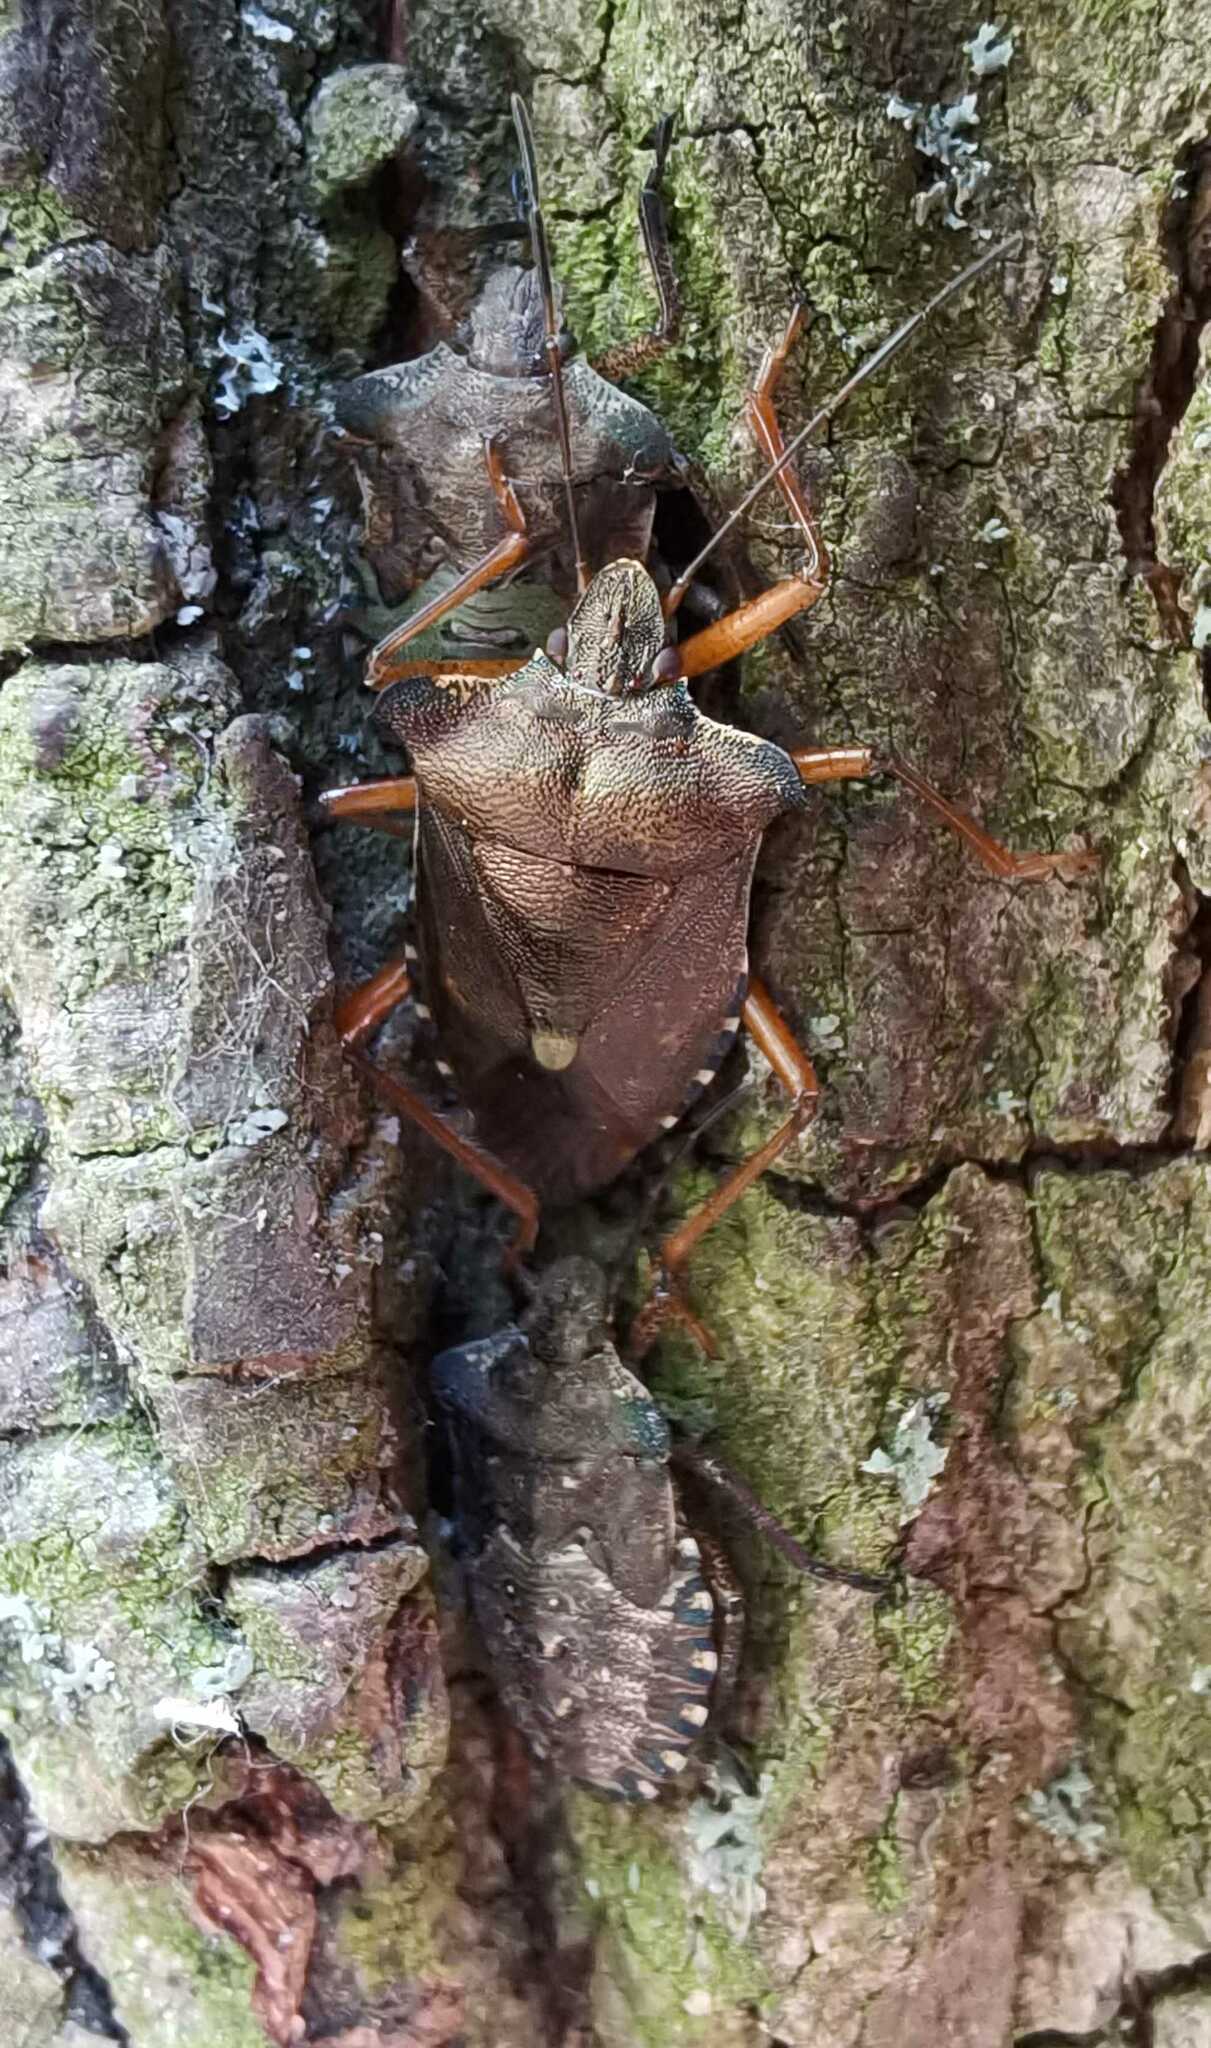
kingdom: Animalia
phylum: Arthropoda
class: Insecta
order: Hemiptera
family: Pentatomidae
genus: Pentatoma
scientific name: Pentatoma rufipes
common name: Forest bug
